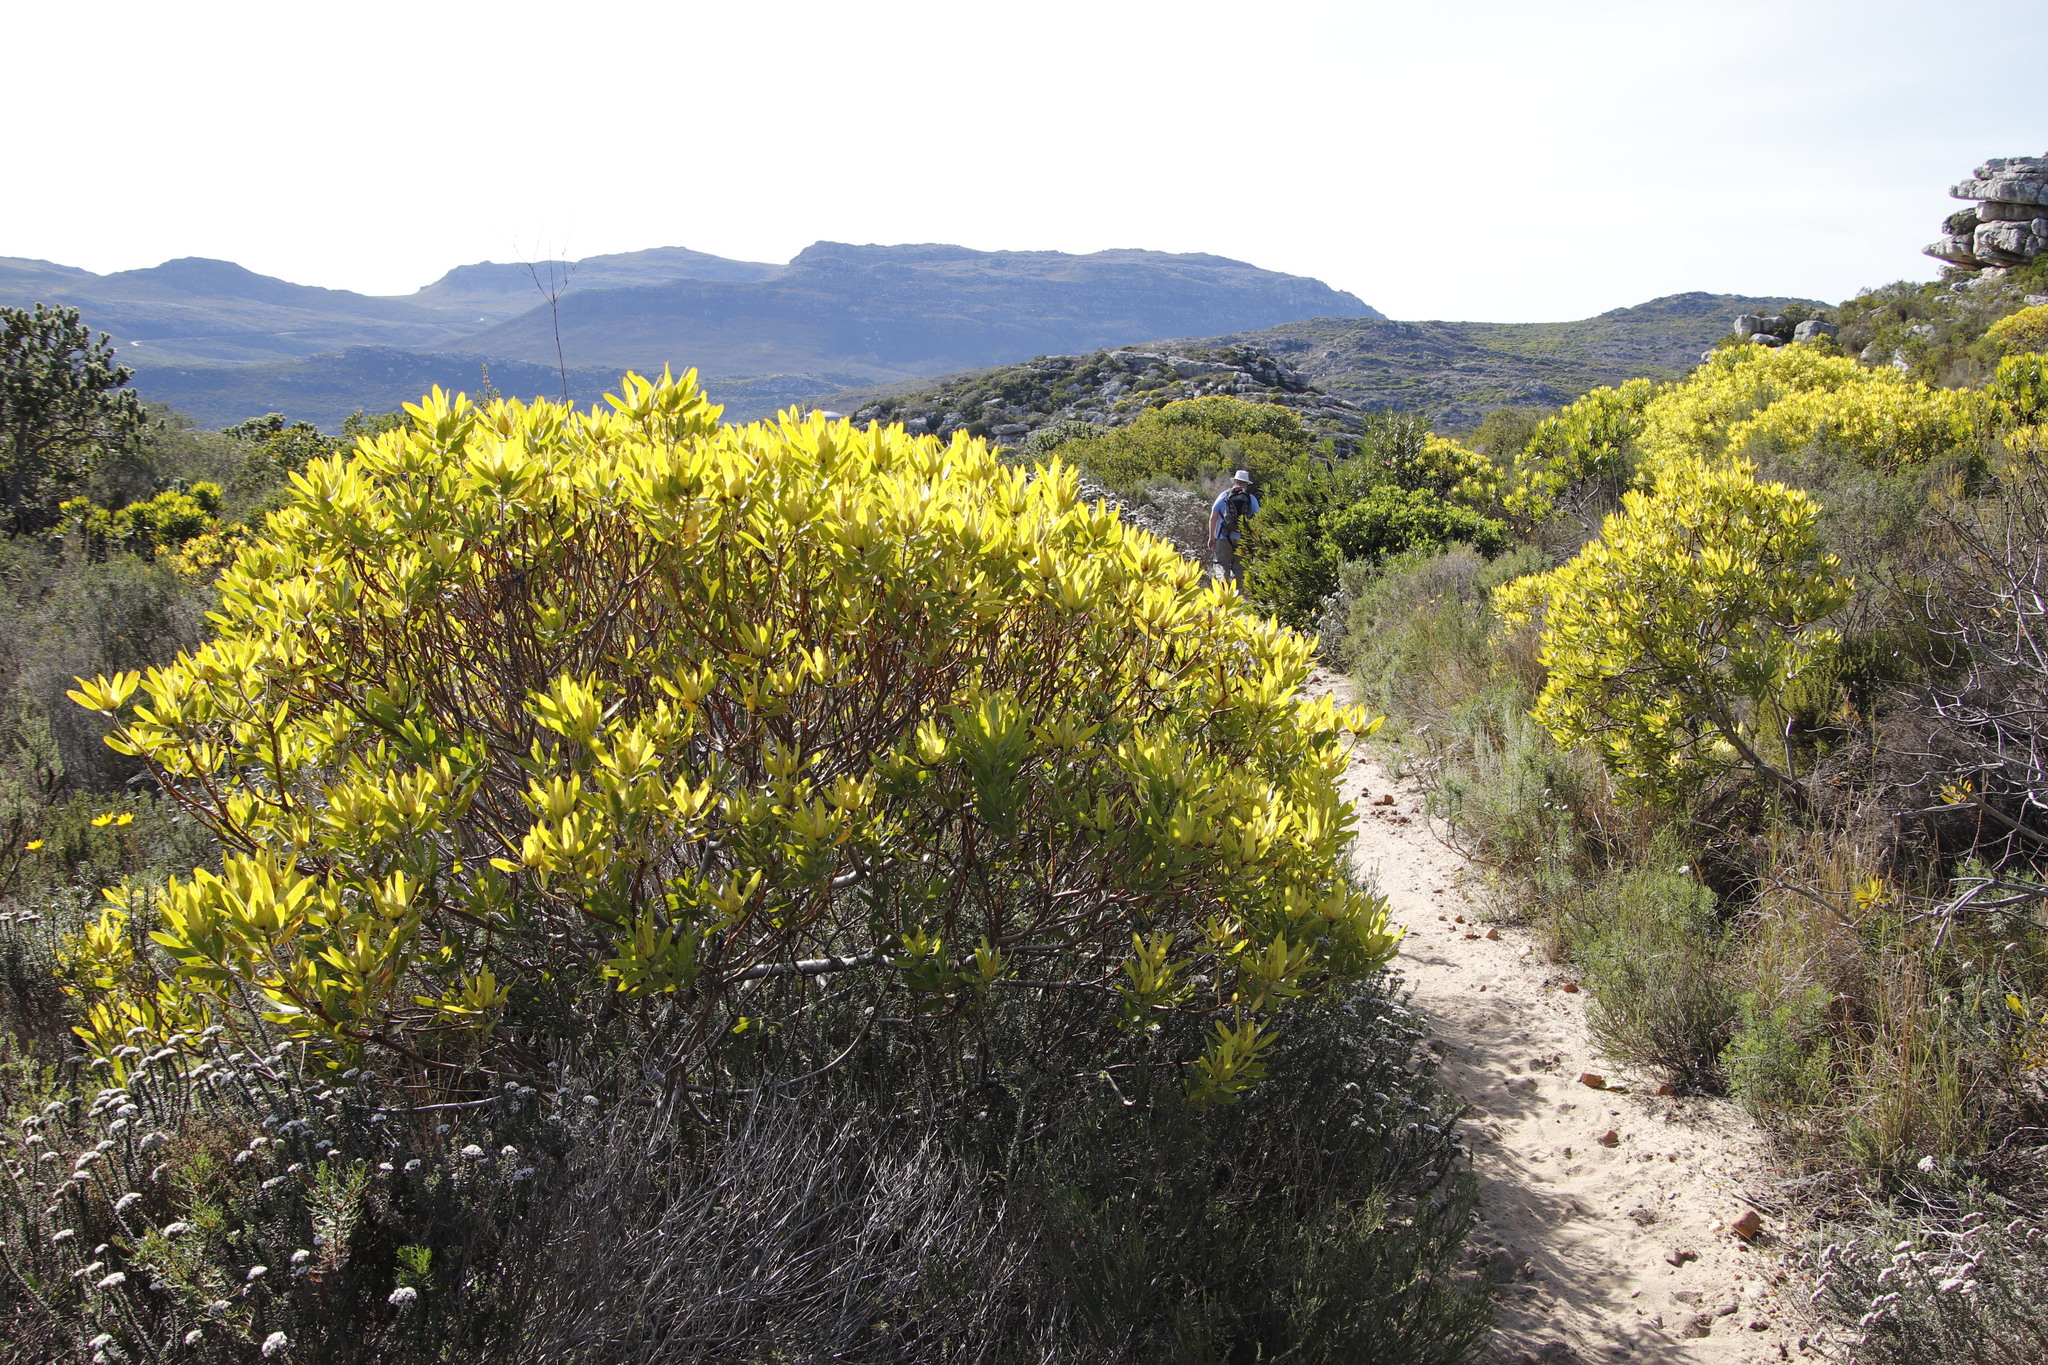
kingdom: Plantae
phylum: Tracheophyta
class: Magnoliopsida
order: Proteales
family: Proteaceae
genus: Leucadendron
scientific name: Leucadendron laureolum
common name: Golden sunshinebush
